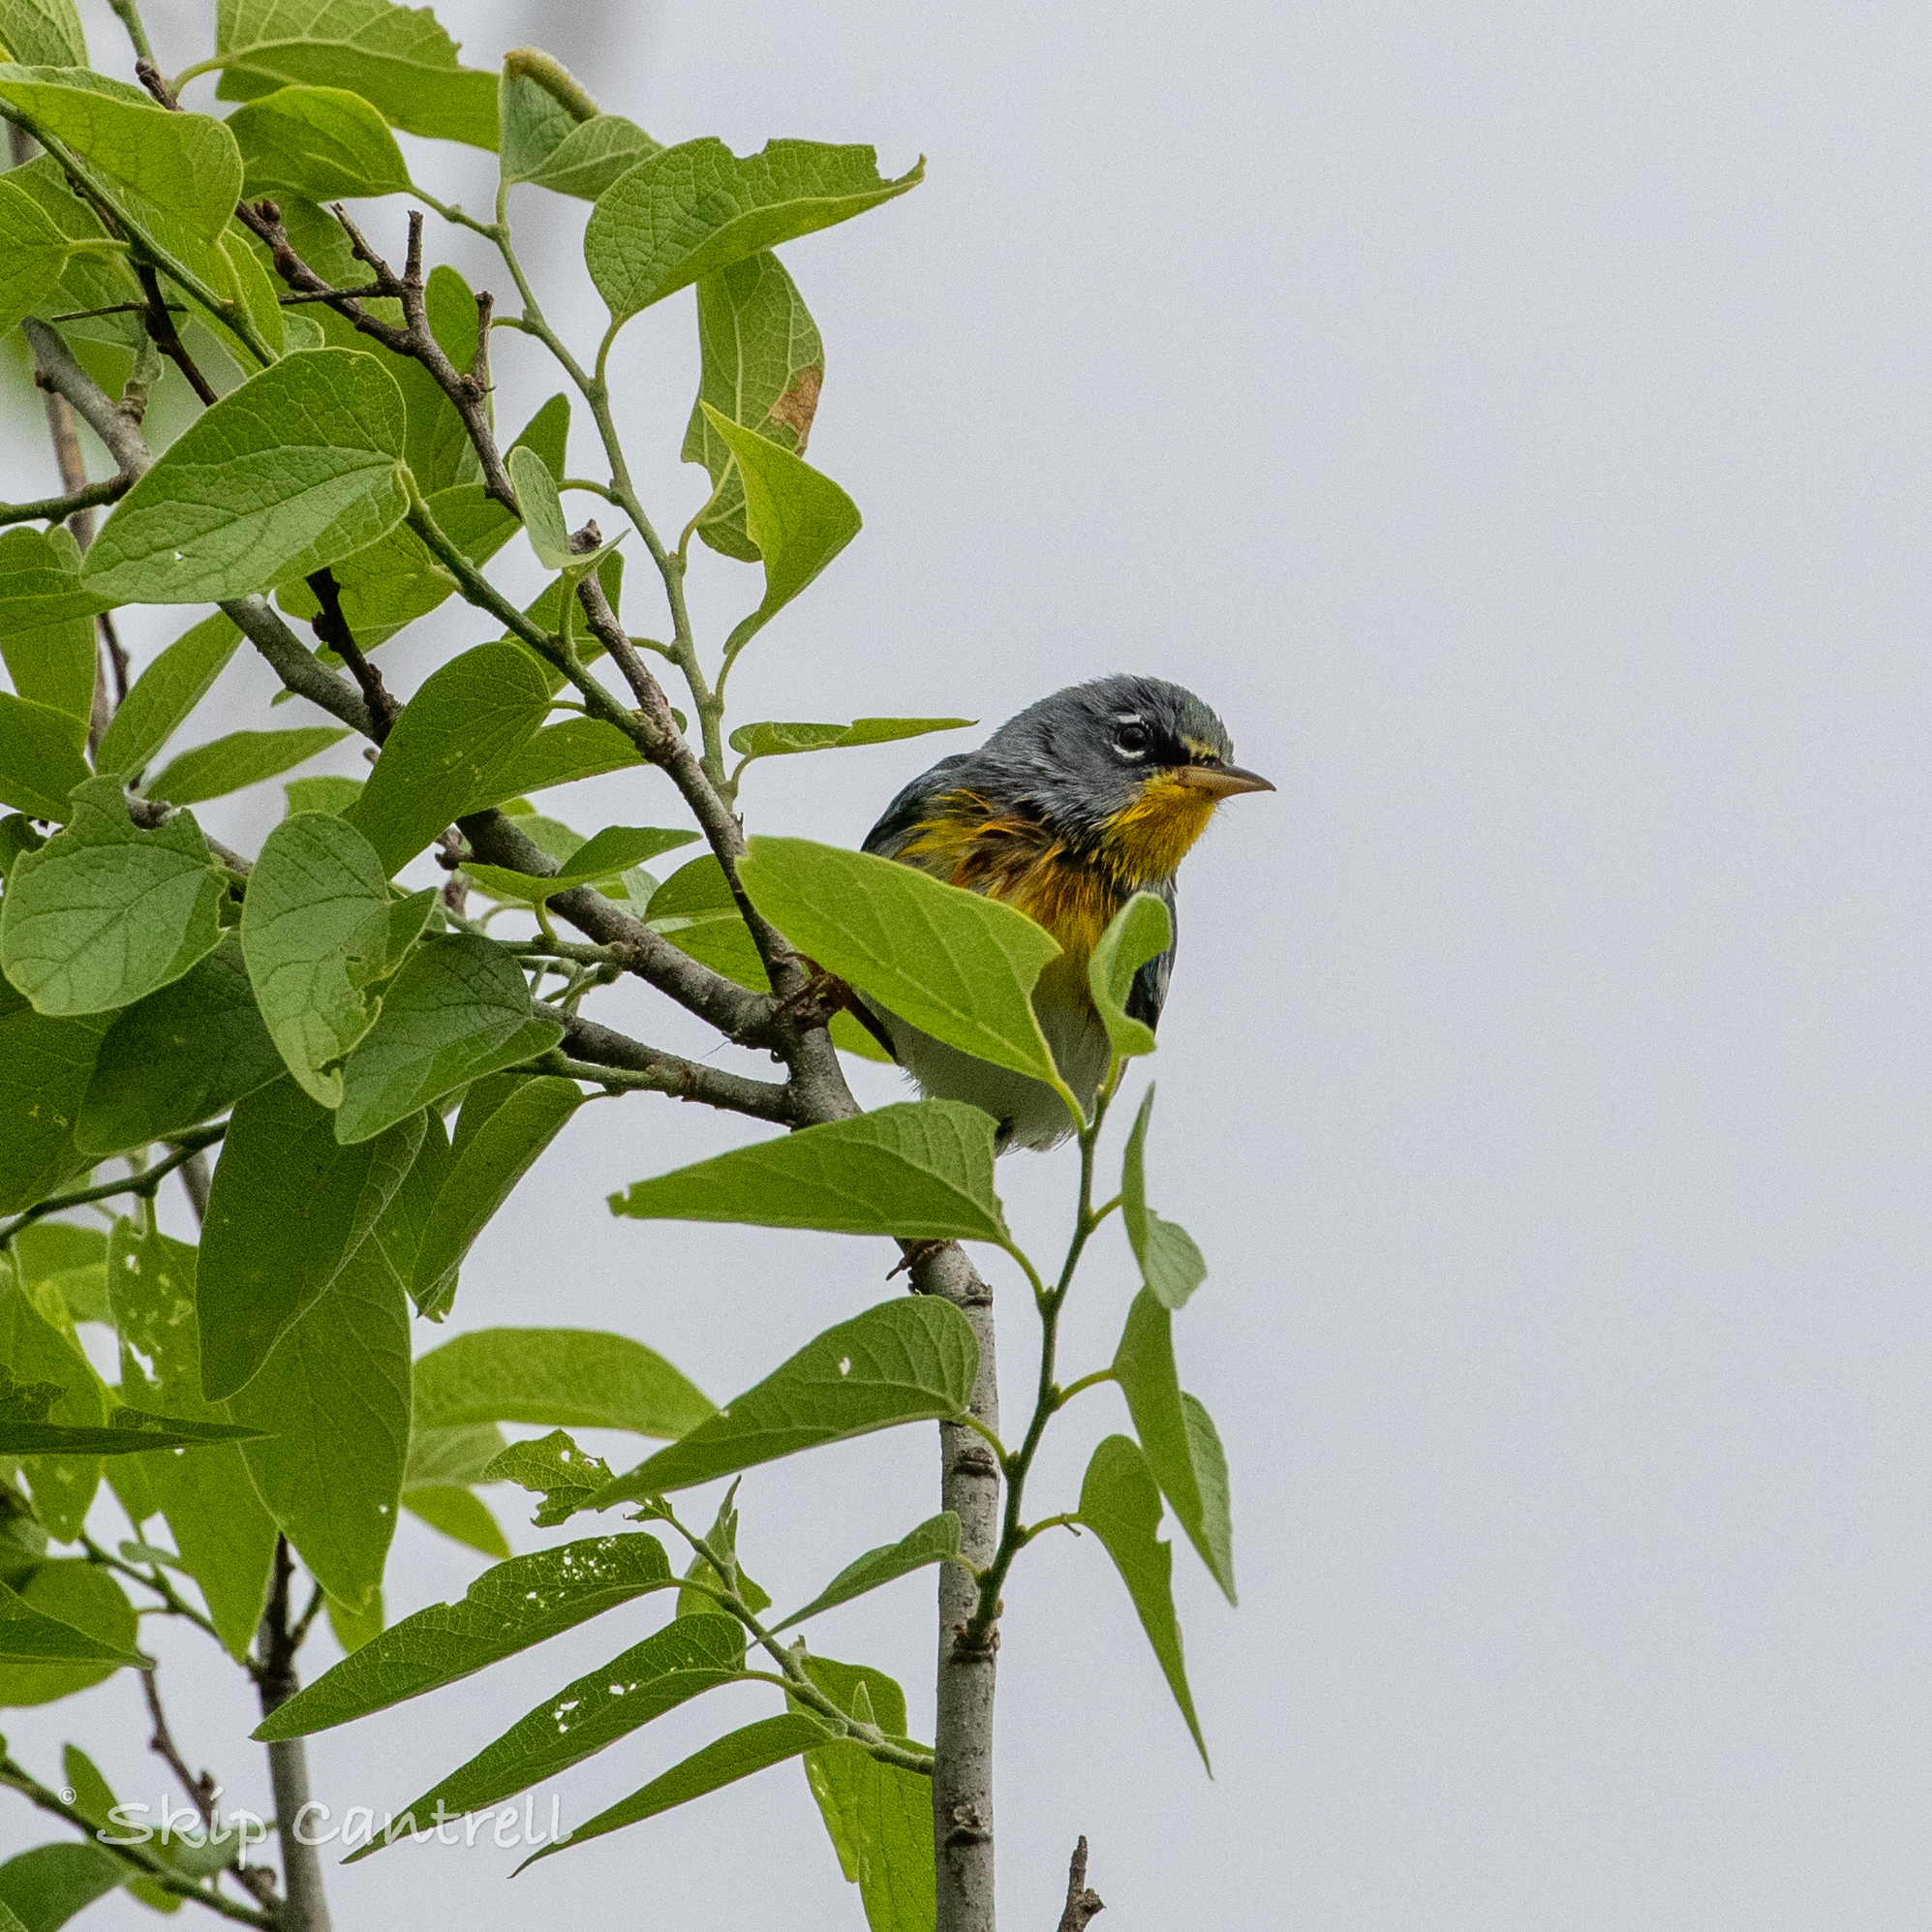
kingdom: Animalia
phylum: Chordata
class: Aves
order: Passeriformes
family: Parulidae
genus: Setophaga
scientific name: Setophaga americana
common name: Northern parula
